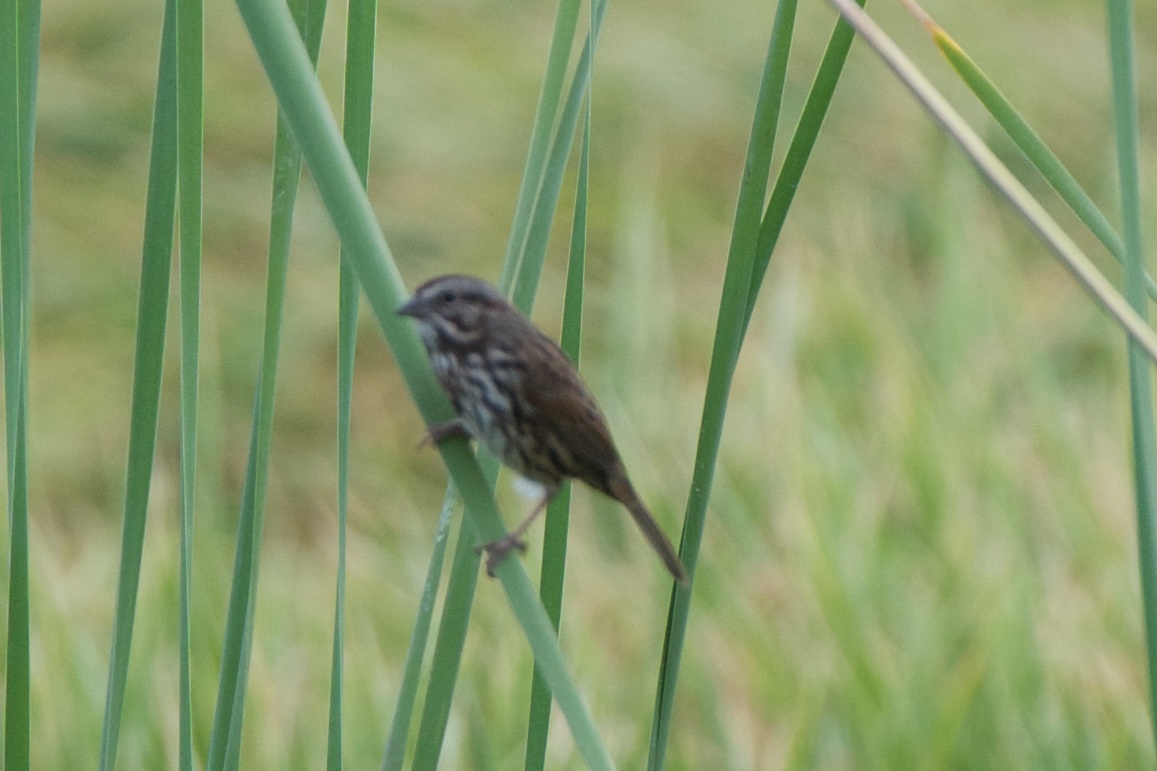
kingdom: Animalia
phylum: Chordata
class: Aves
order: Passeriformes
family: Passerellidae
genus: Melospiza
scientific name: Melospiza melodia
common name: Song sparrow
